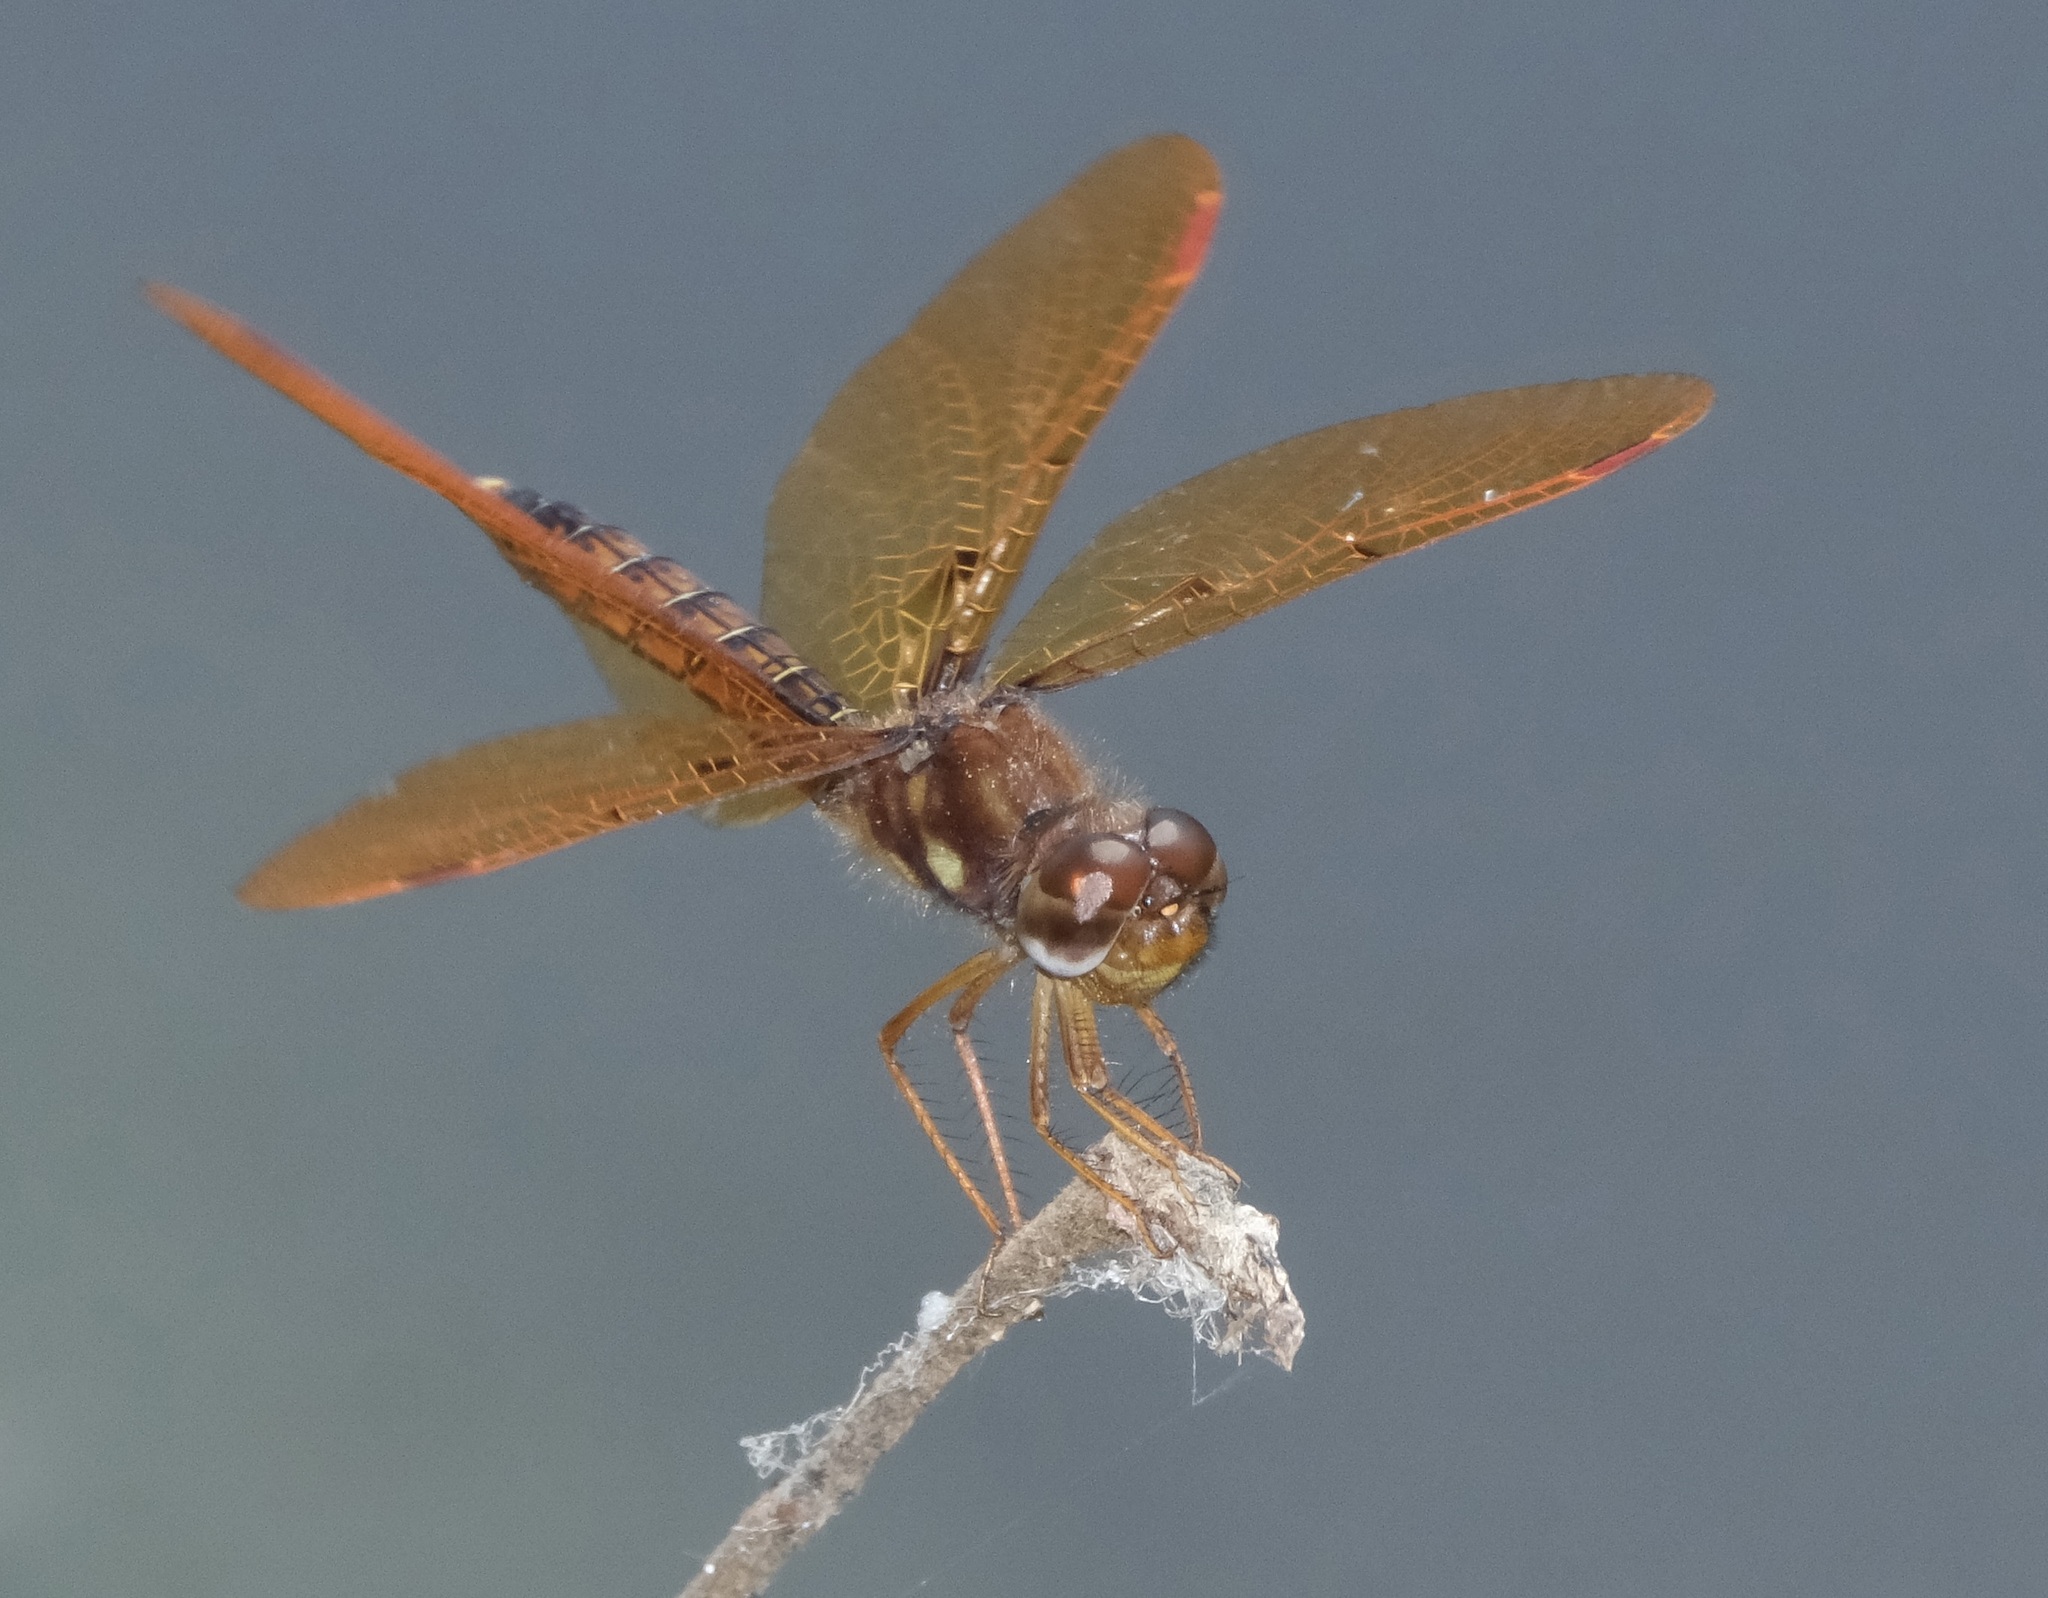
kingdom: Animalia
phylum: Arthropoda
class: Insecta
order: Odonata
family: Libellulidae
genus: Perithemis
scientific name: Perithemis tenera
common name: Eastern amberwing
